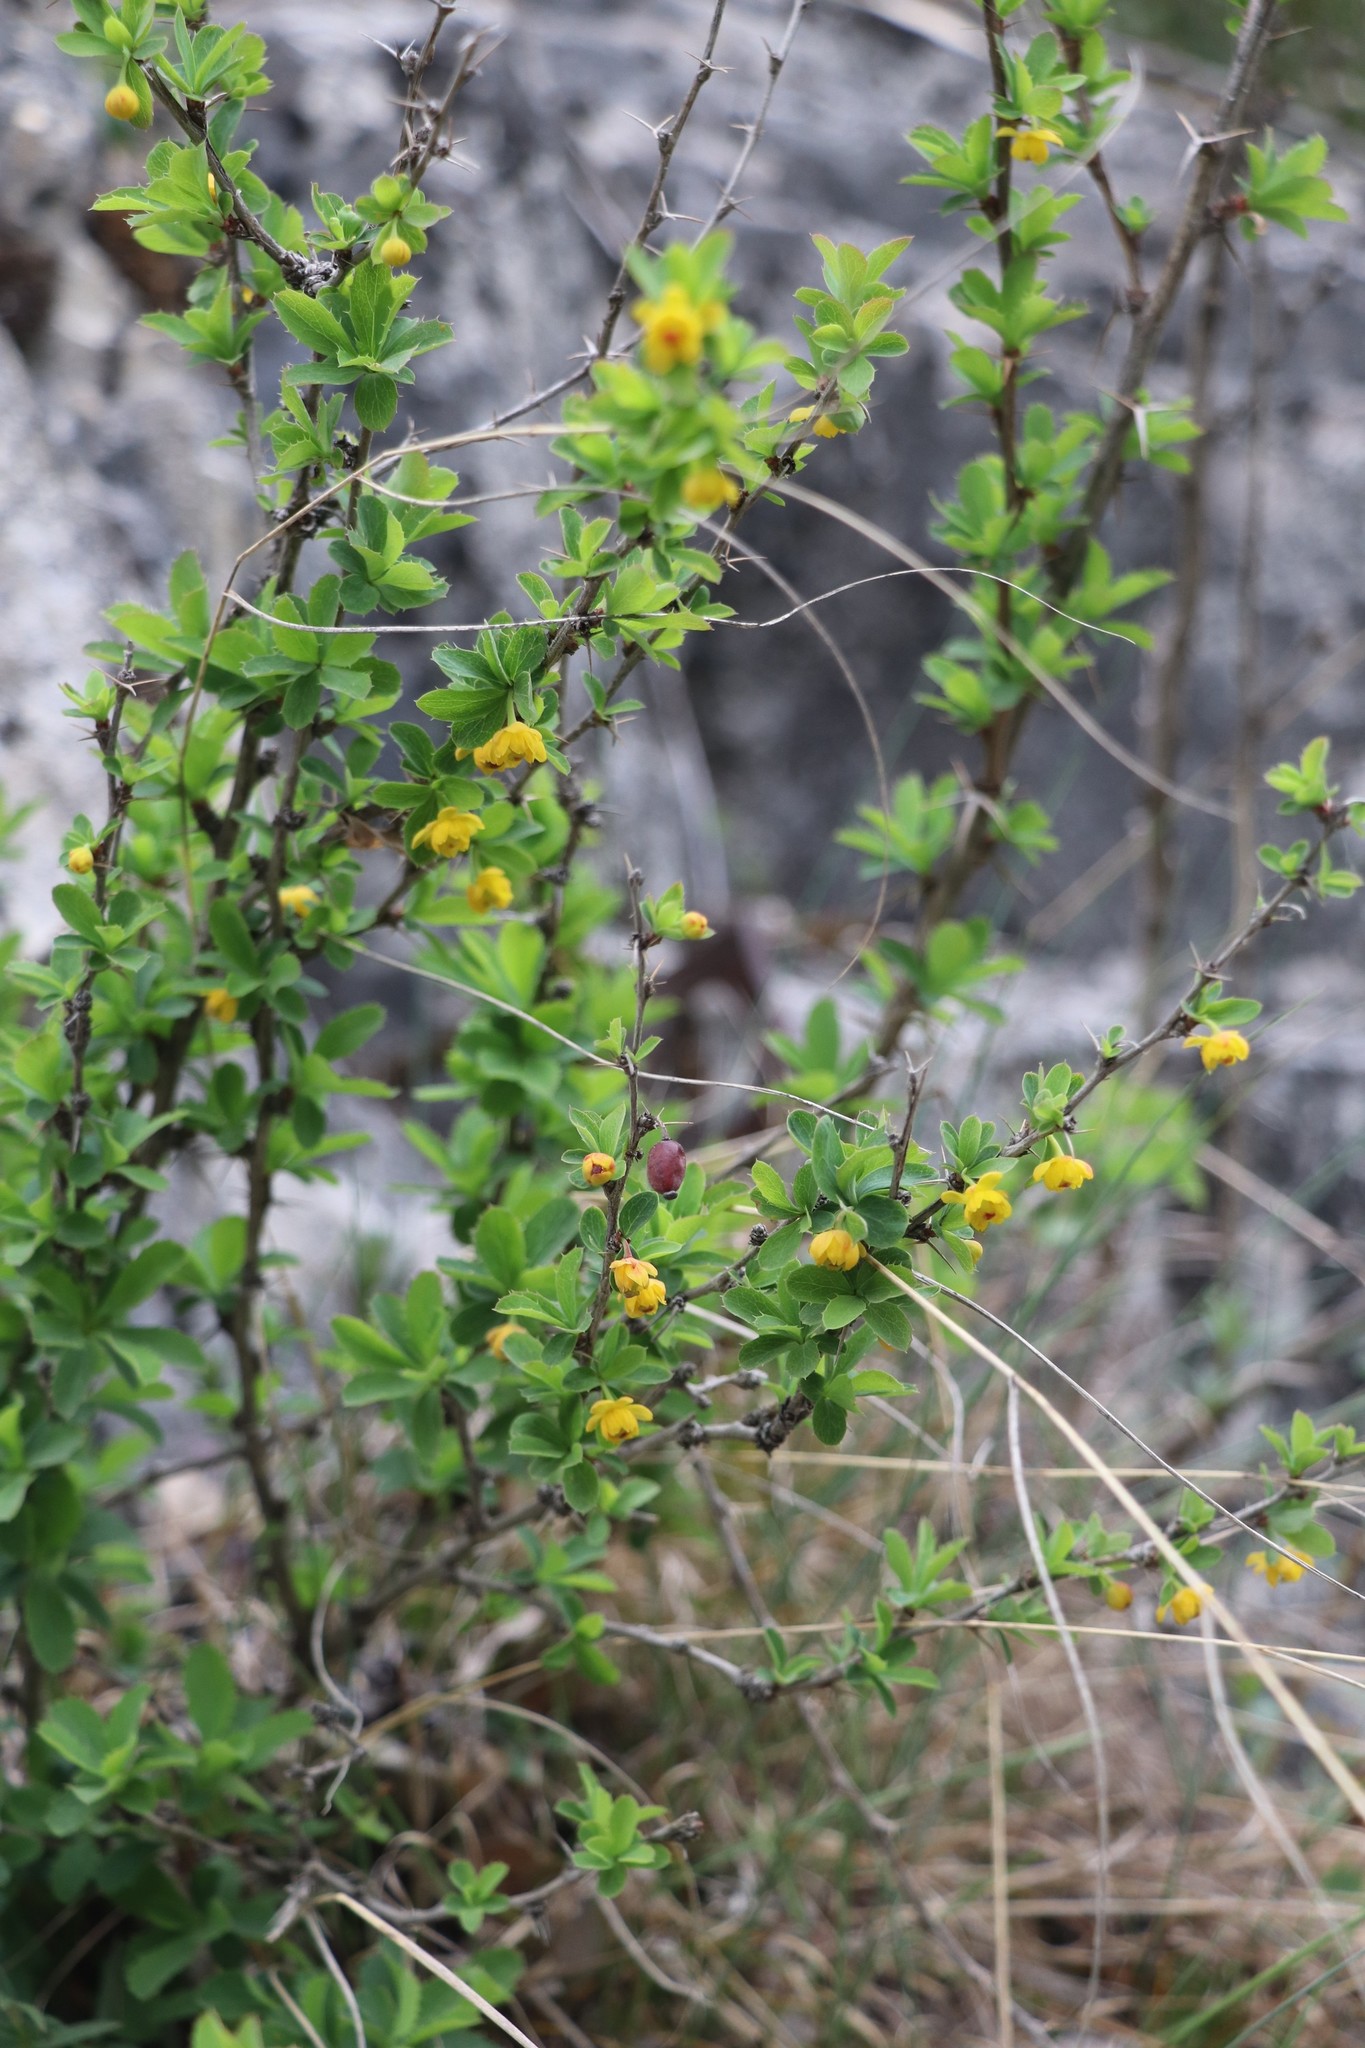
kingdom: Plantae
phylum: Tracheophyta
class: Magnoliopsida
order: Ranunculales
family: Berberidaceae
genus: Berberis
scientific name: Berberis sibirica
